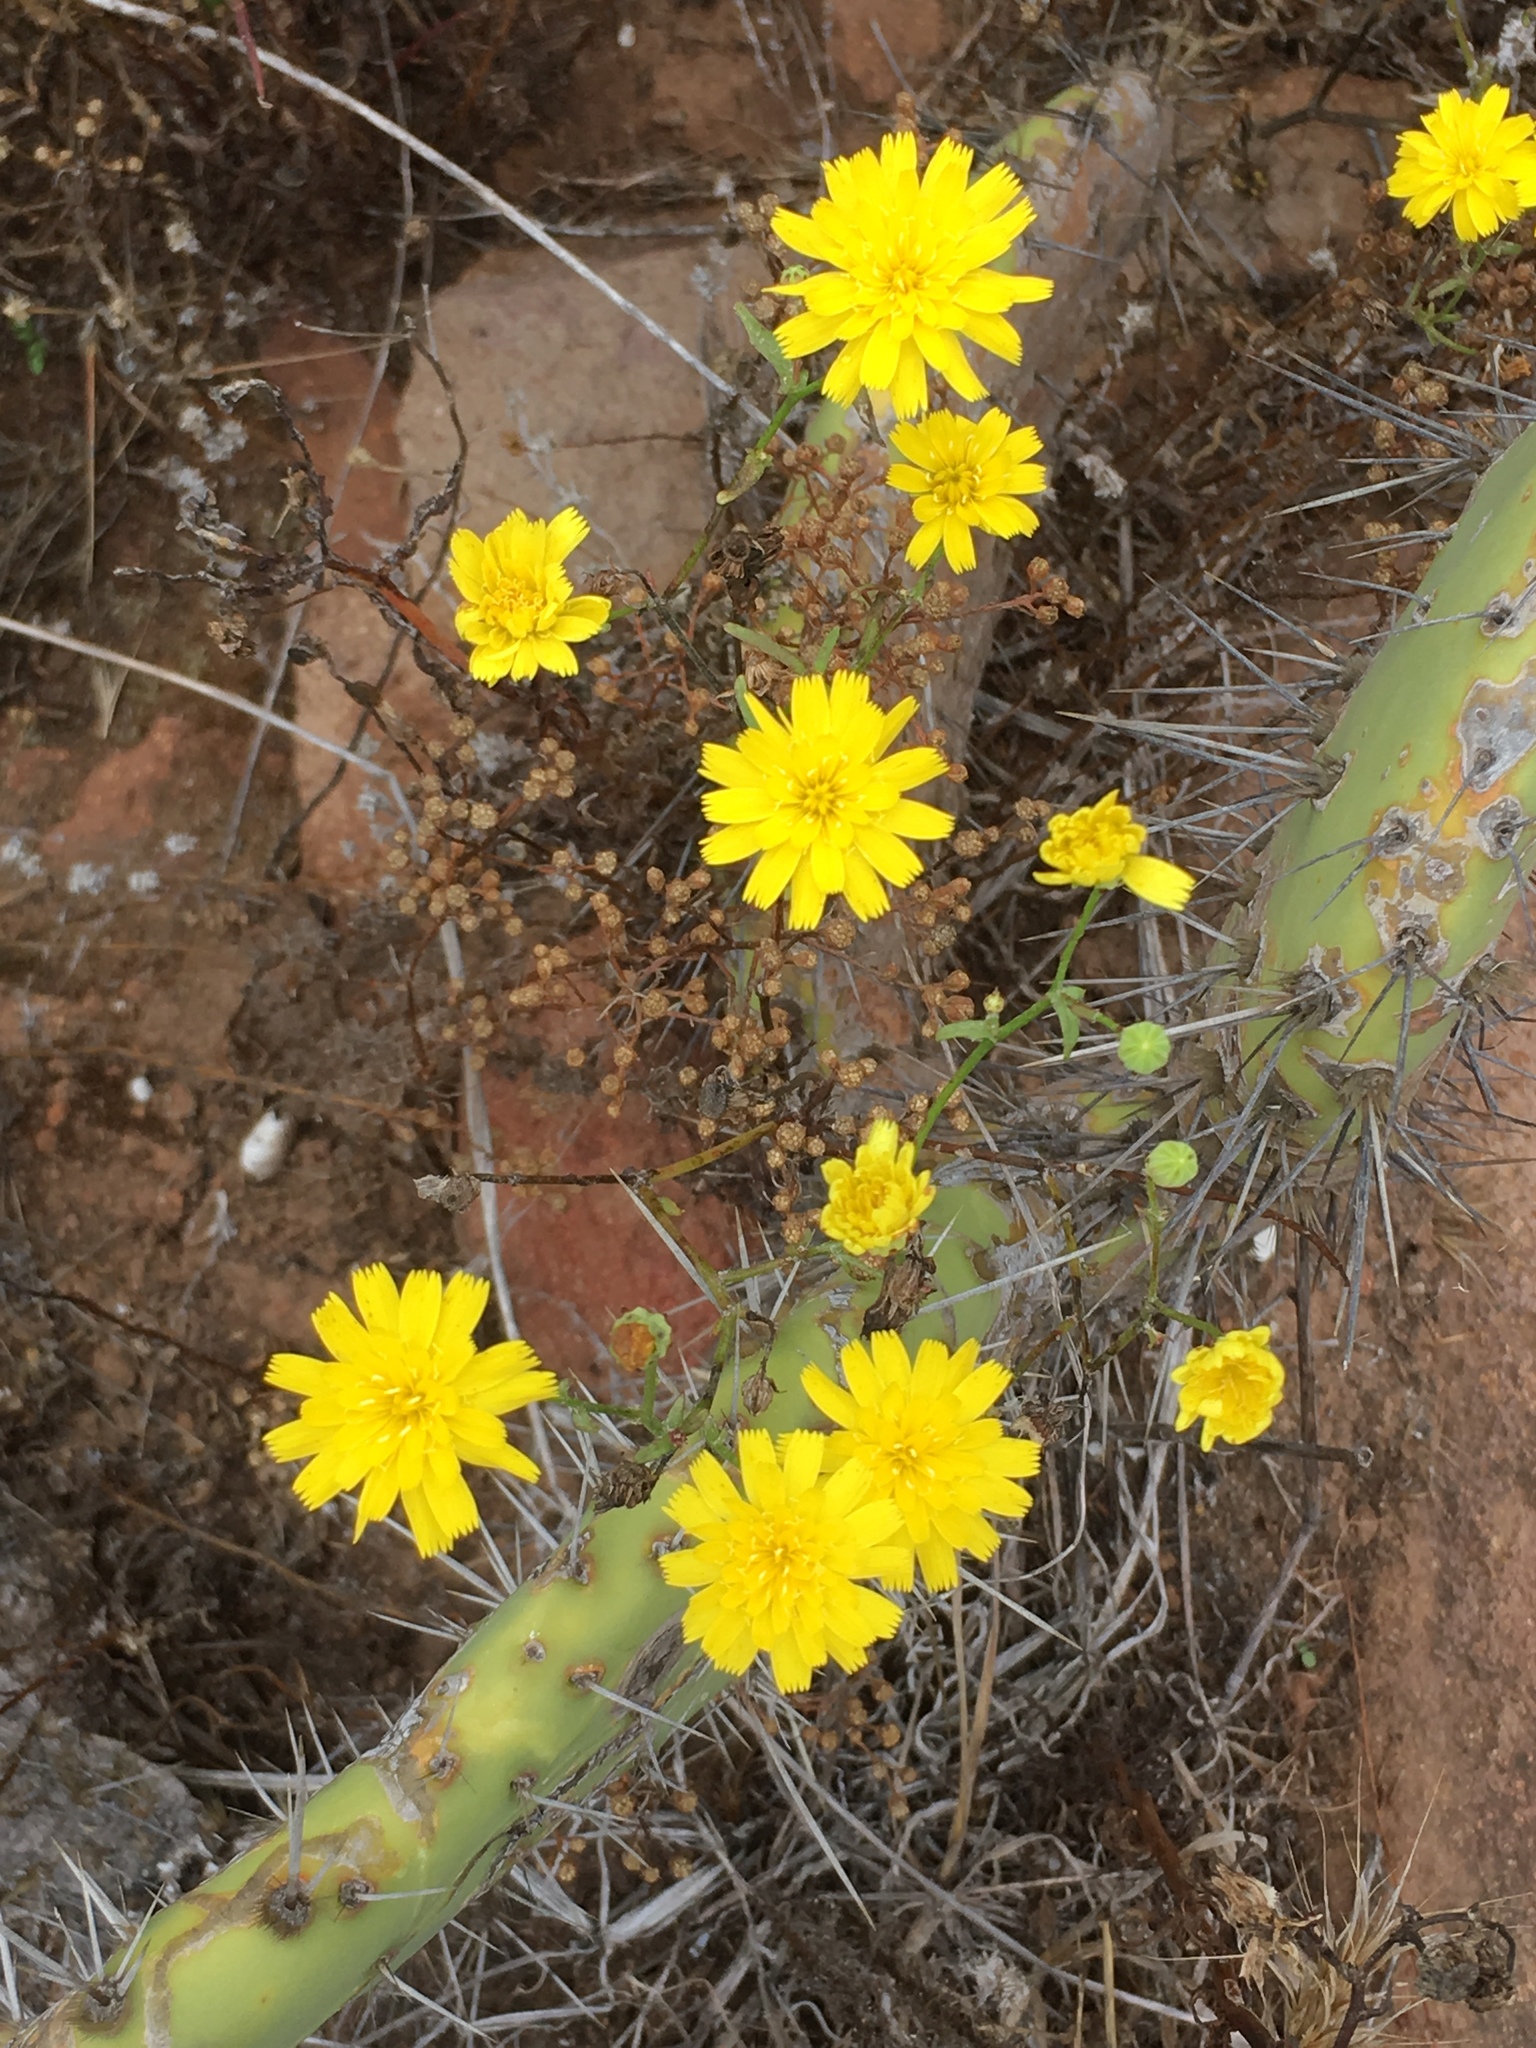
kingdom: Plantae
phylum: Tracheophyta
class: Magnoliopsida
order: Asterales
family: Asteraceae
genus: Malacothrix
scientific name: Malacothrix foliosa
